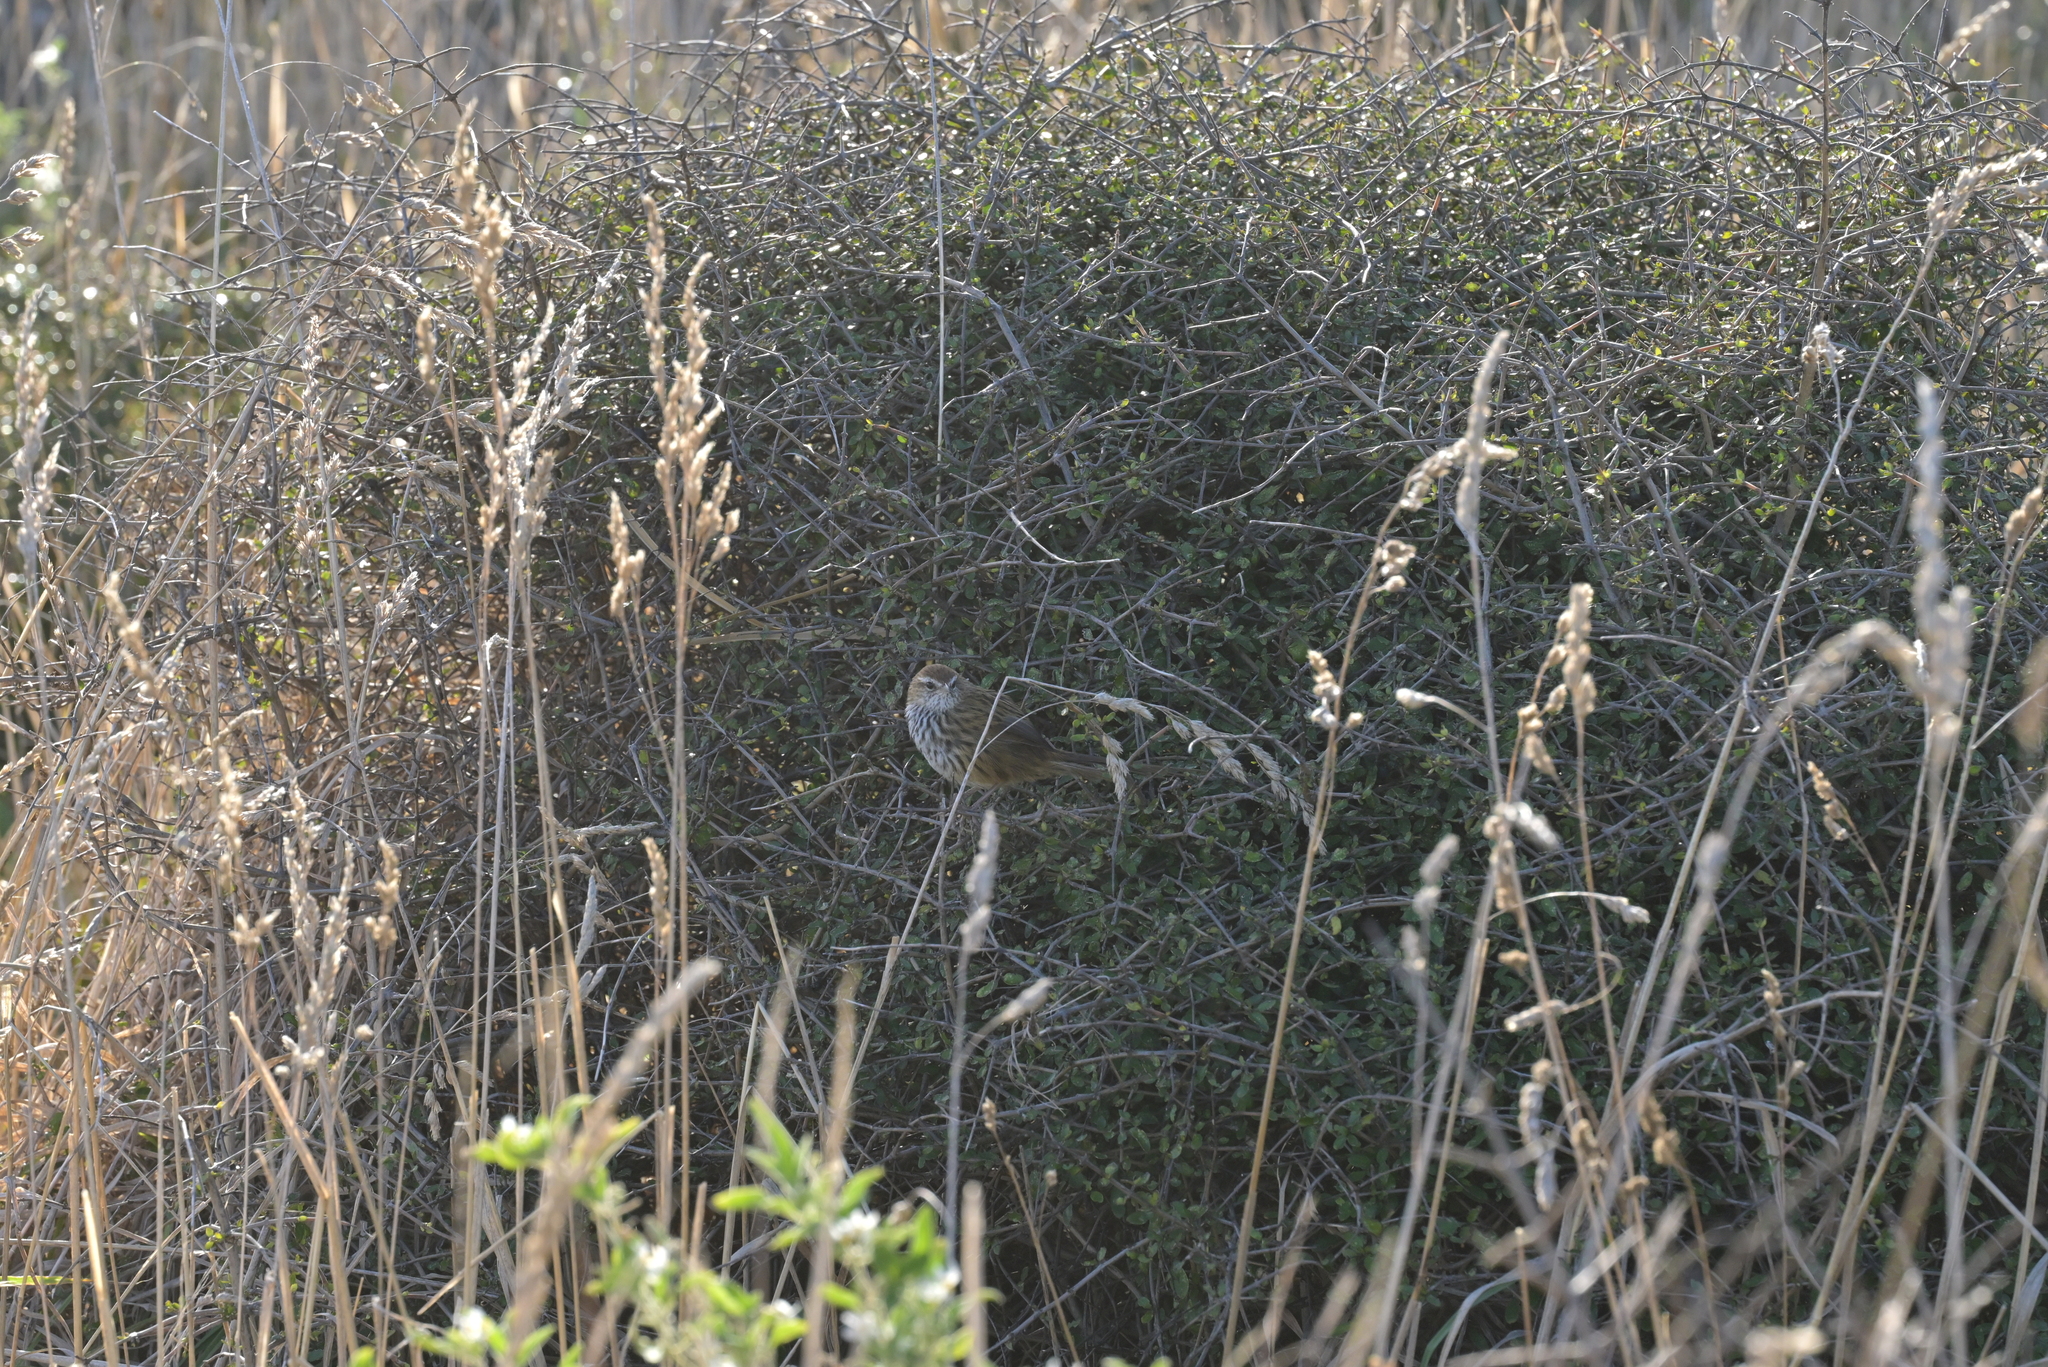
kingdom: Animalia
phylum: Chordata
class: Aves
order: Passeriformes
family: Locustellidae
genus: Megalurus
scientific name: Megalurus punctatus
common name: New zealand fernbird
